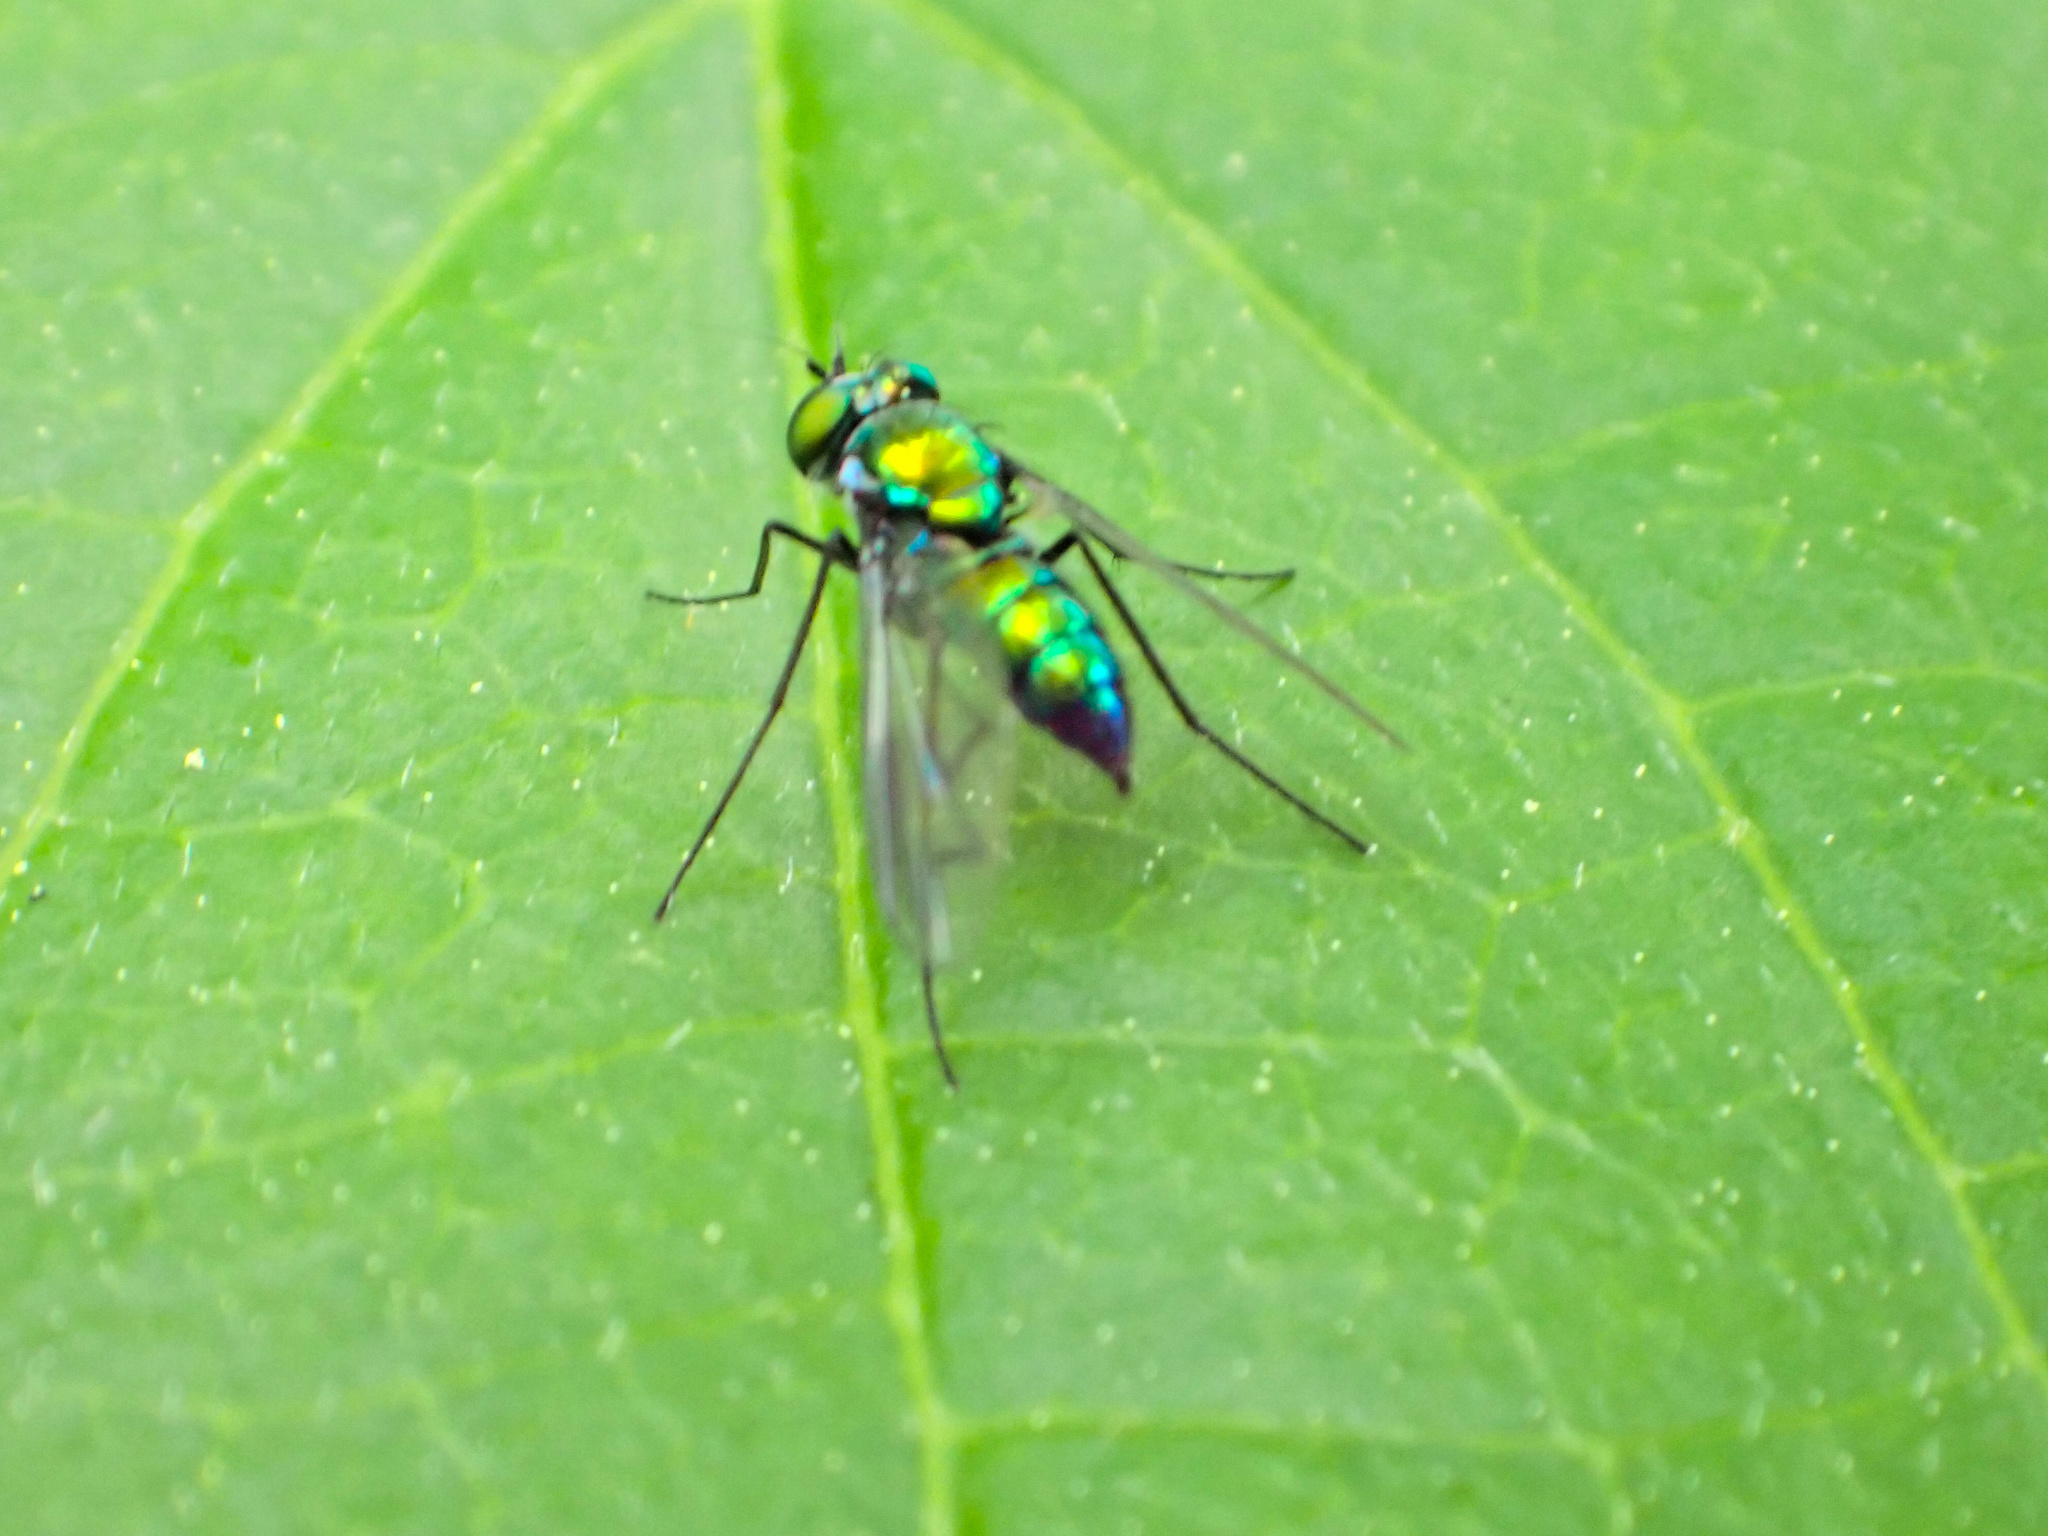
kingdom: Animalia
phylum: Arthropoda
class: Insecta
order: Diptera
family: Dolichopodidae
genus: Condylostylus
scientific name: Condylostylus patibulatus
